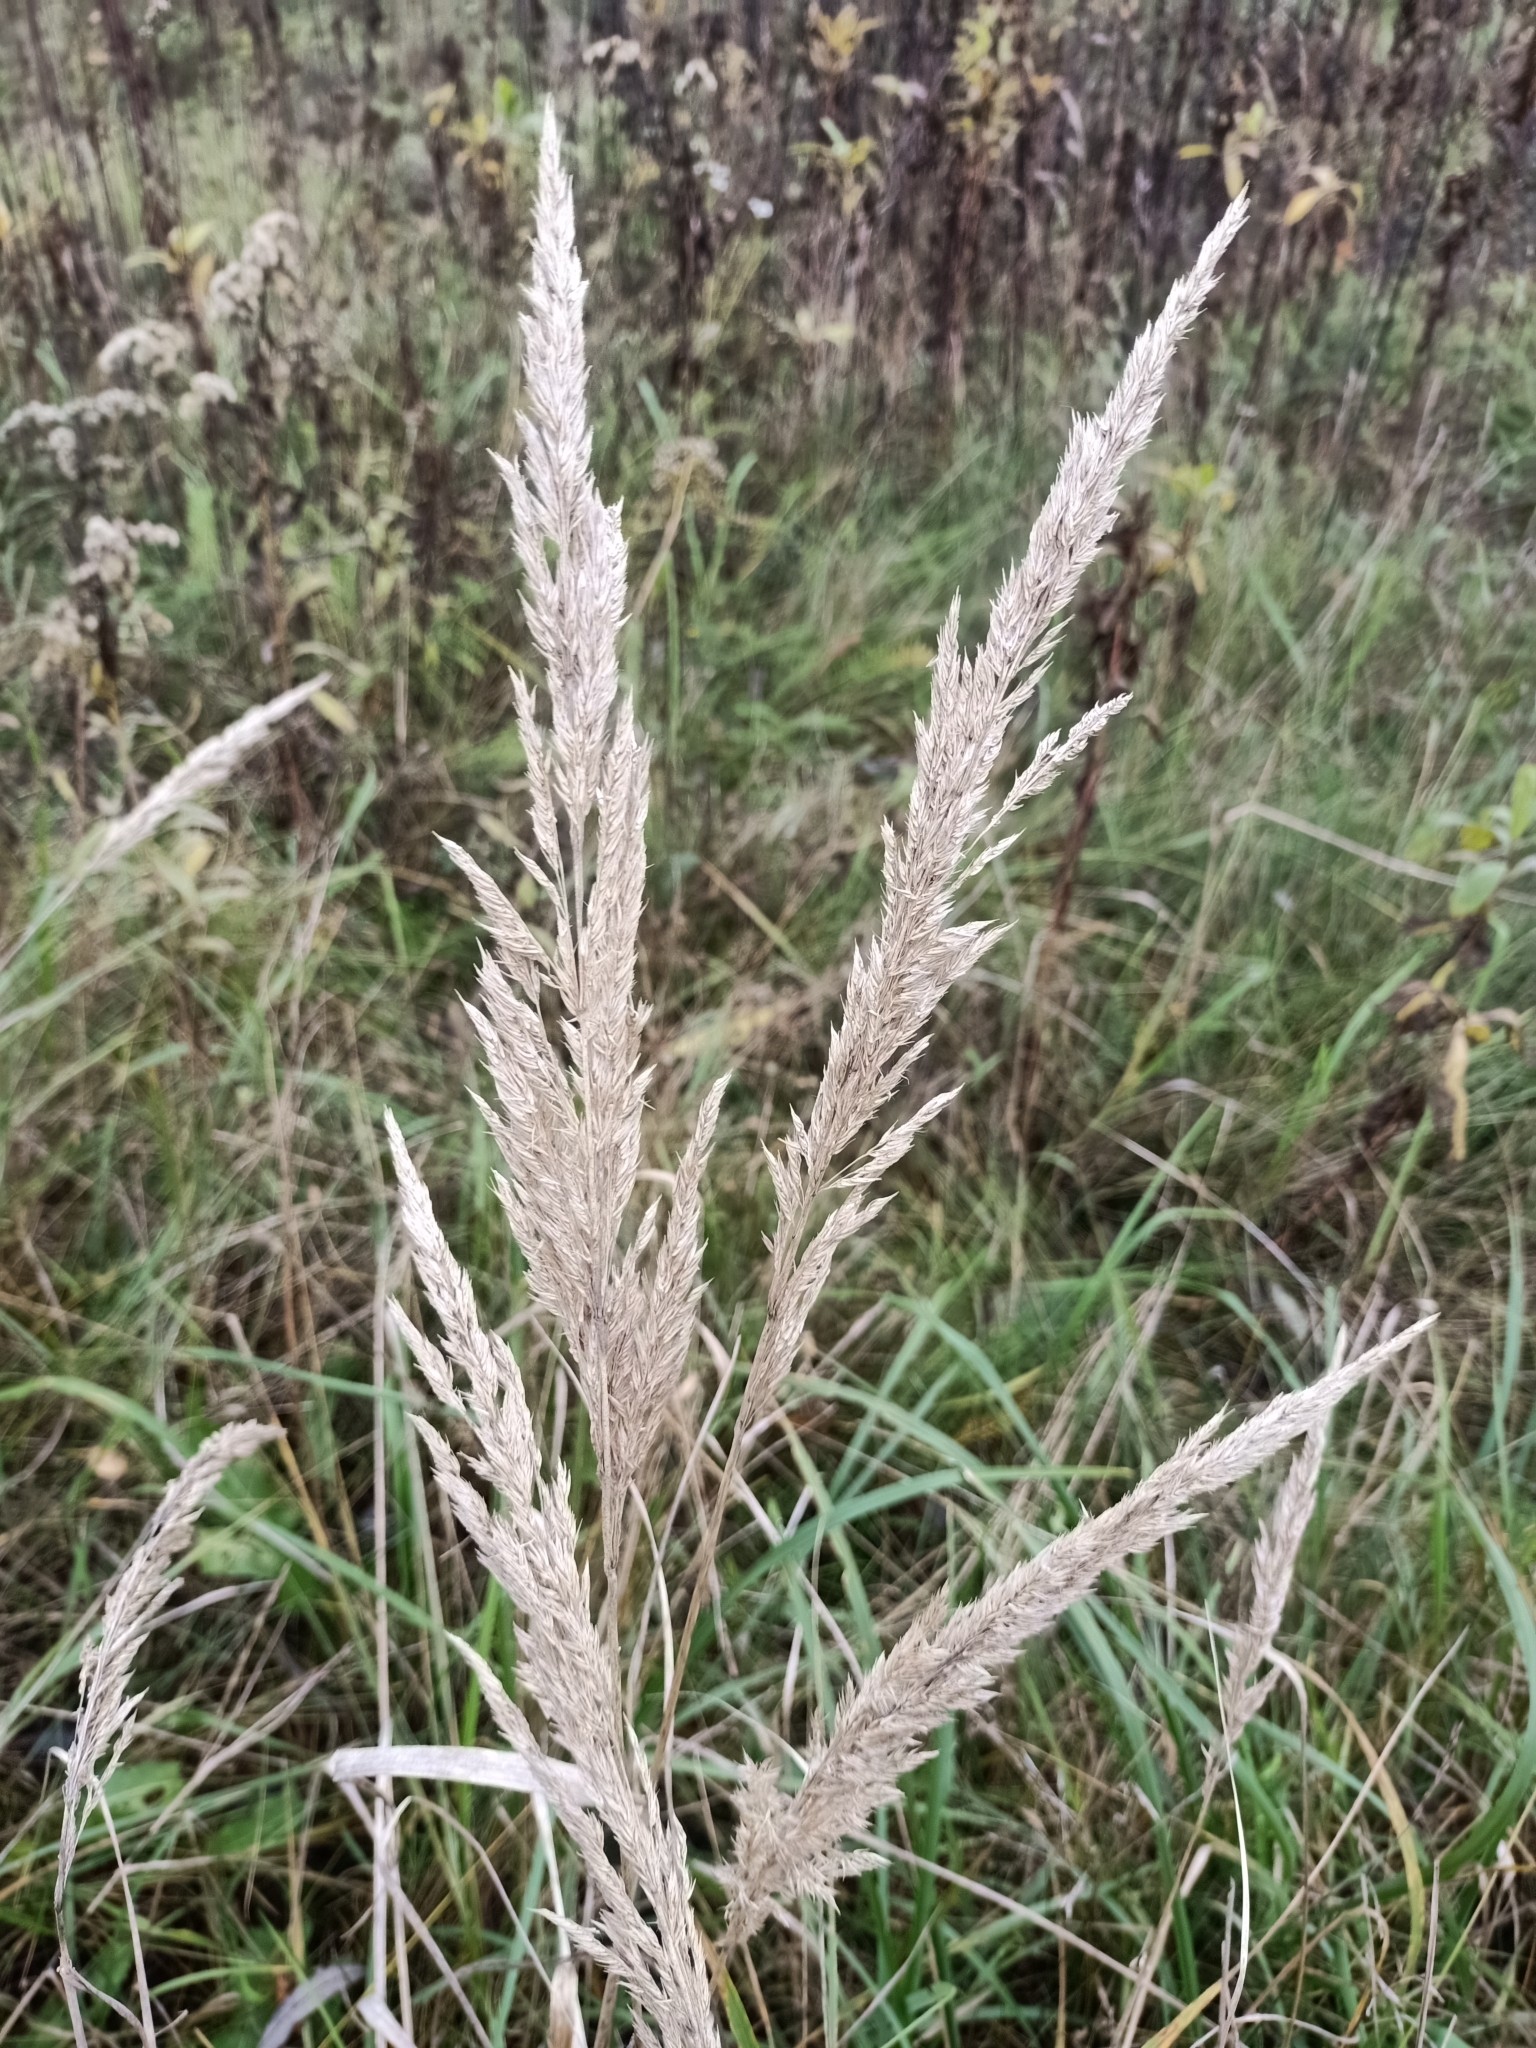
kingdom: Plantae
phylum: Tracheophyta
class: Liliopsida
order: Poales
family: Poaceae
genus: Calamagrostis
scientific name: Calamagrostis epigejos
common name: Wood small-reed
